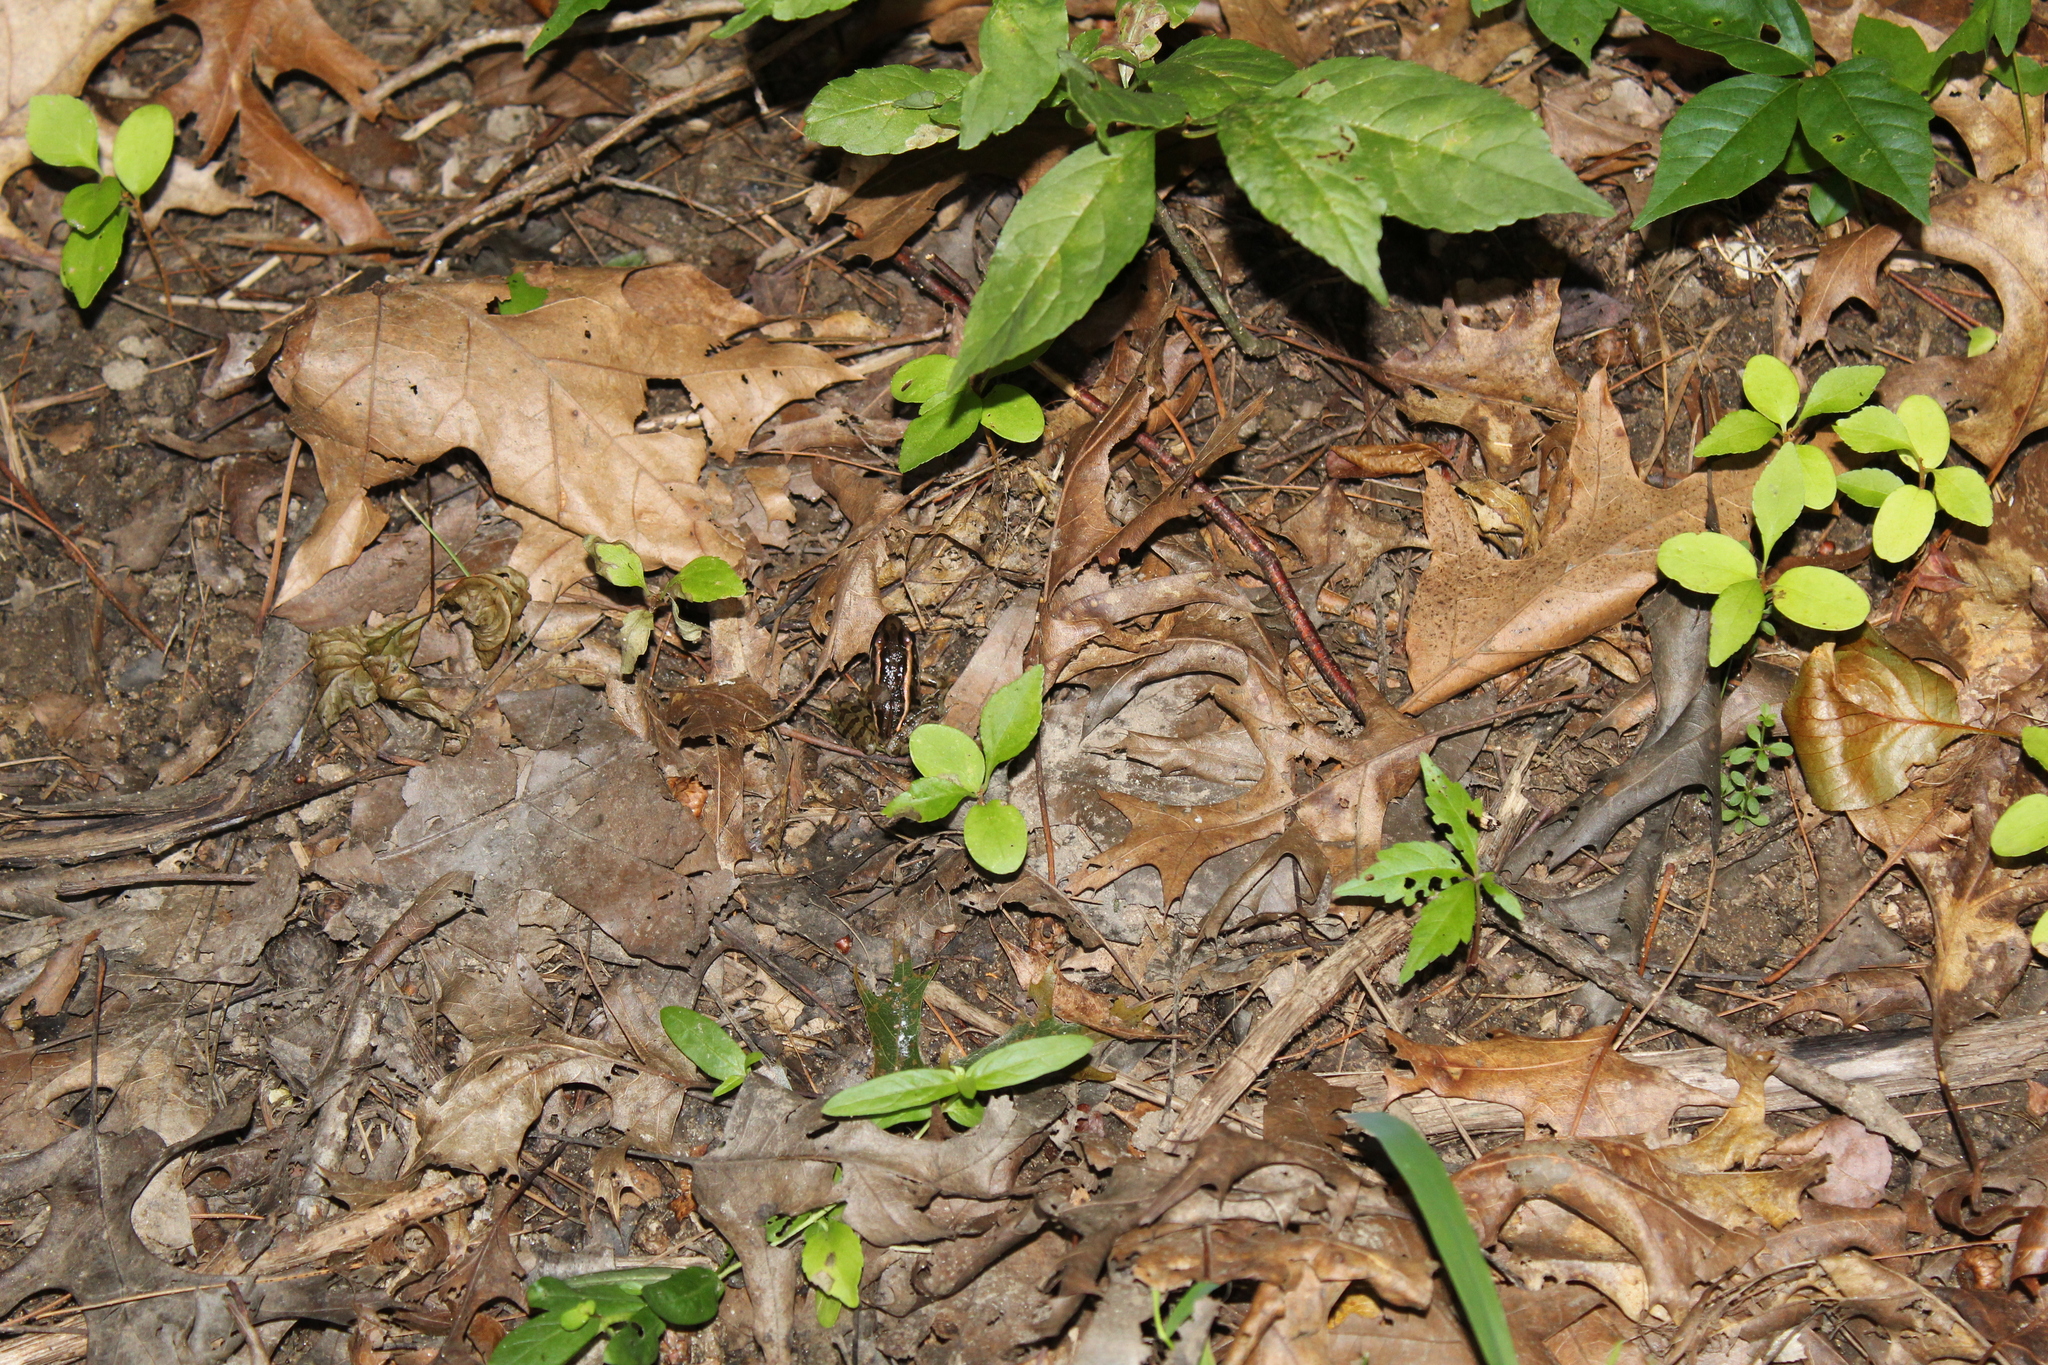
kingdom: Animalia
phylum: Chordata
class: Amphibia
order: Anura
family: Ranidae
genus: Lithobates
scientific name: Lithobates palustris
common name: Pickerel frog
